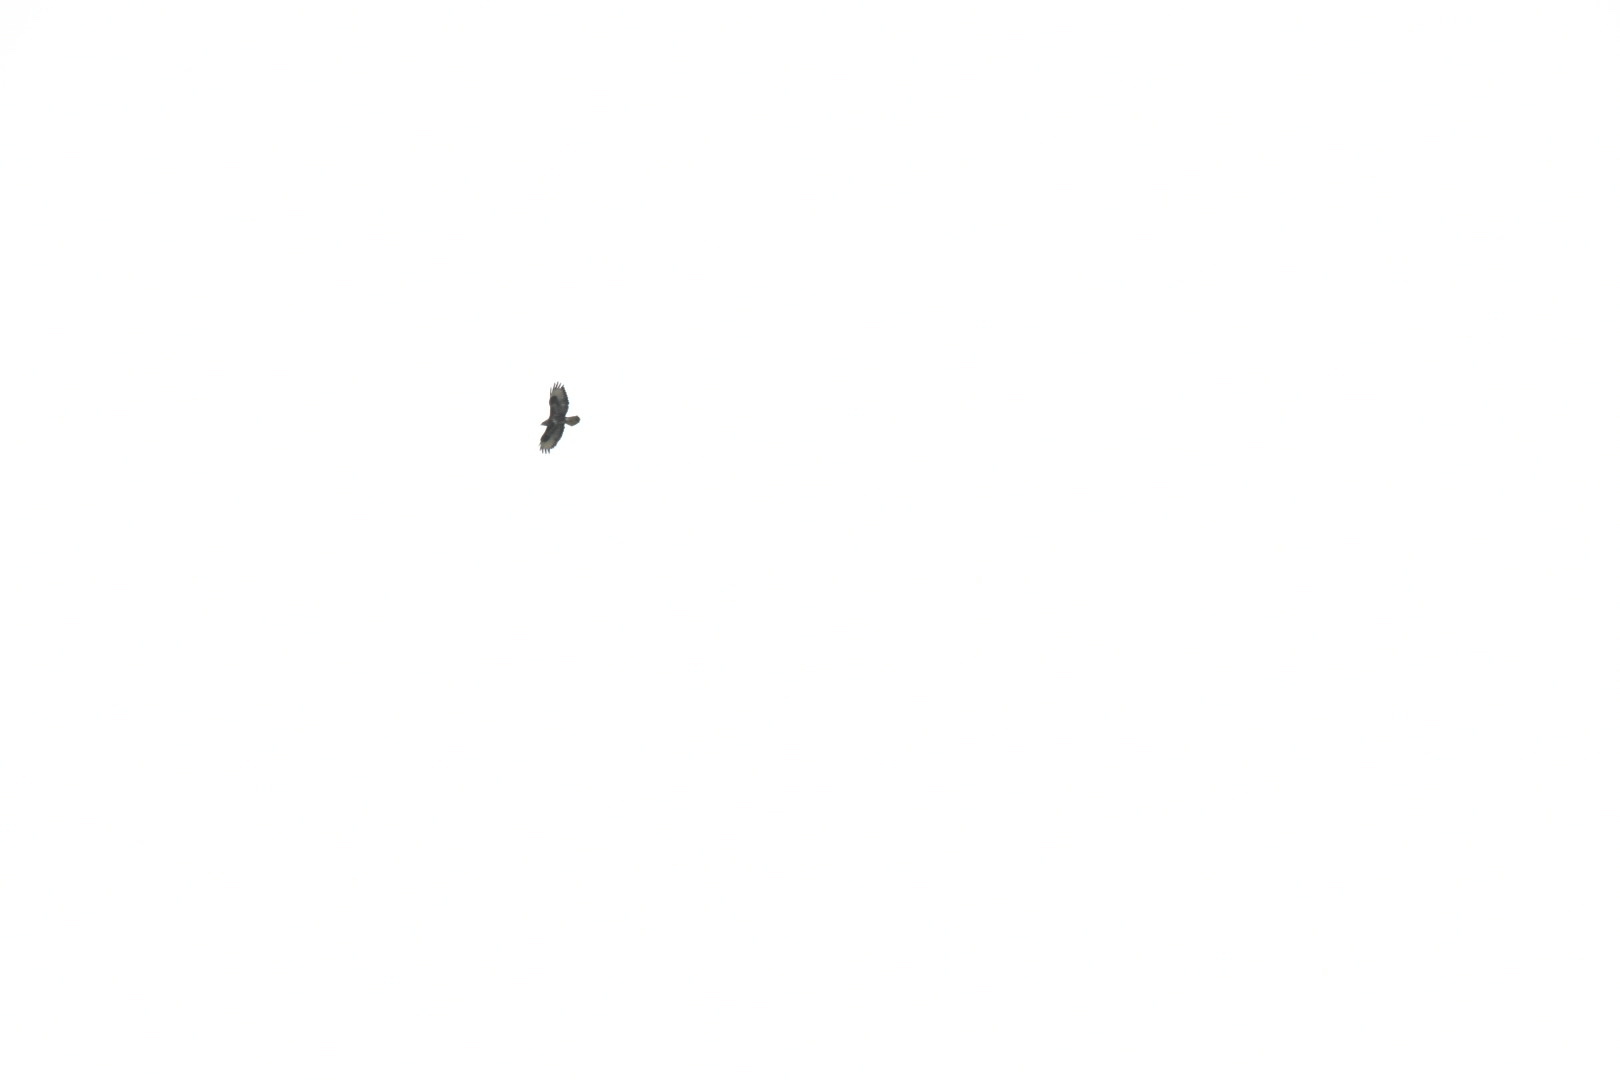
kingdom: Animalia
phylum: Chordata
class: Aves
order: Accipitriformes
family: Accipitridae
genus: Buteo
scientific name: Buteo buteo
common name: Common buzzard
